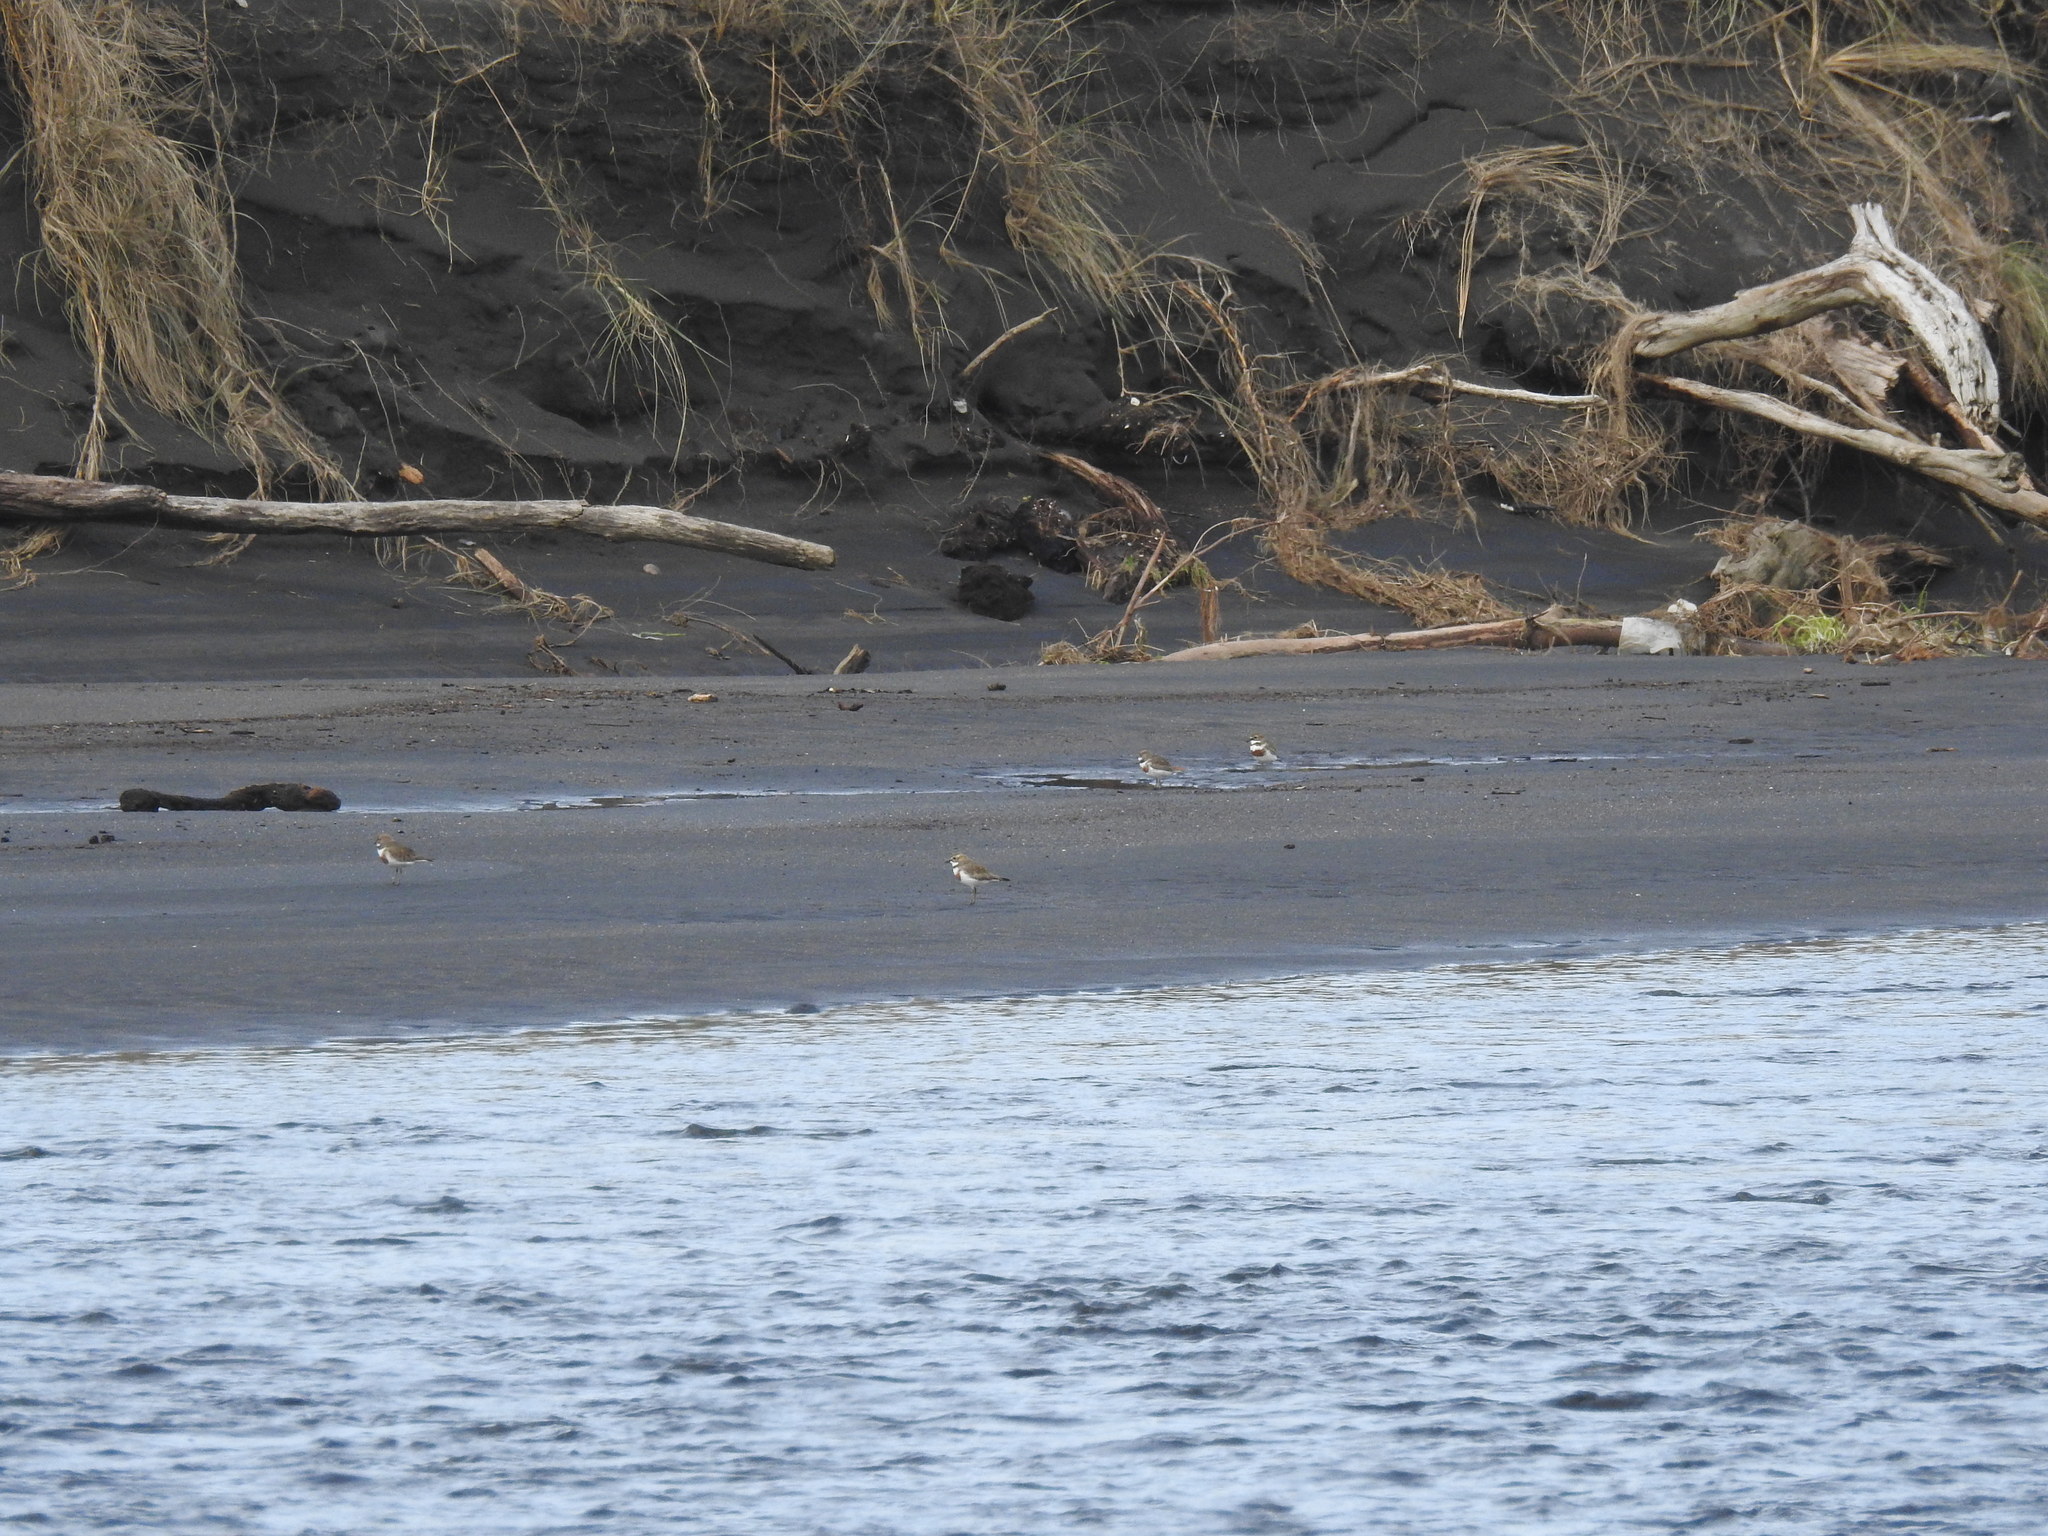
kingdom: Animalia
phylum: Chordata
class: Aves
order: Charadriiformes
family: Charadriidae
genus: Anarhynchus
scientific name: Anarhynchus
